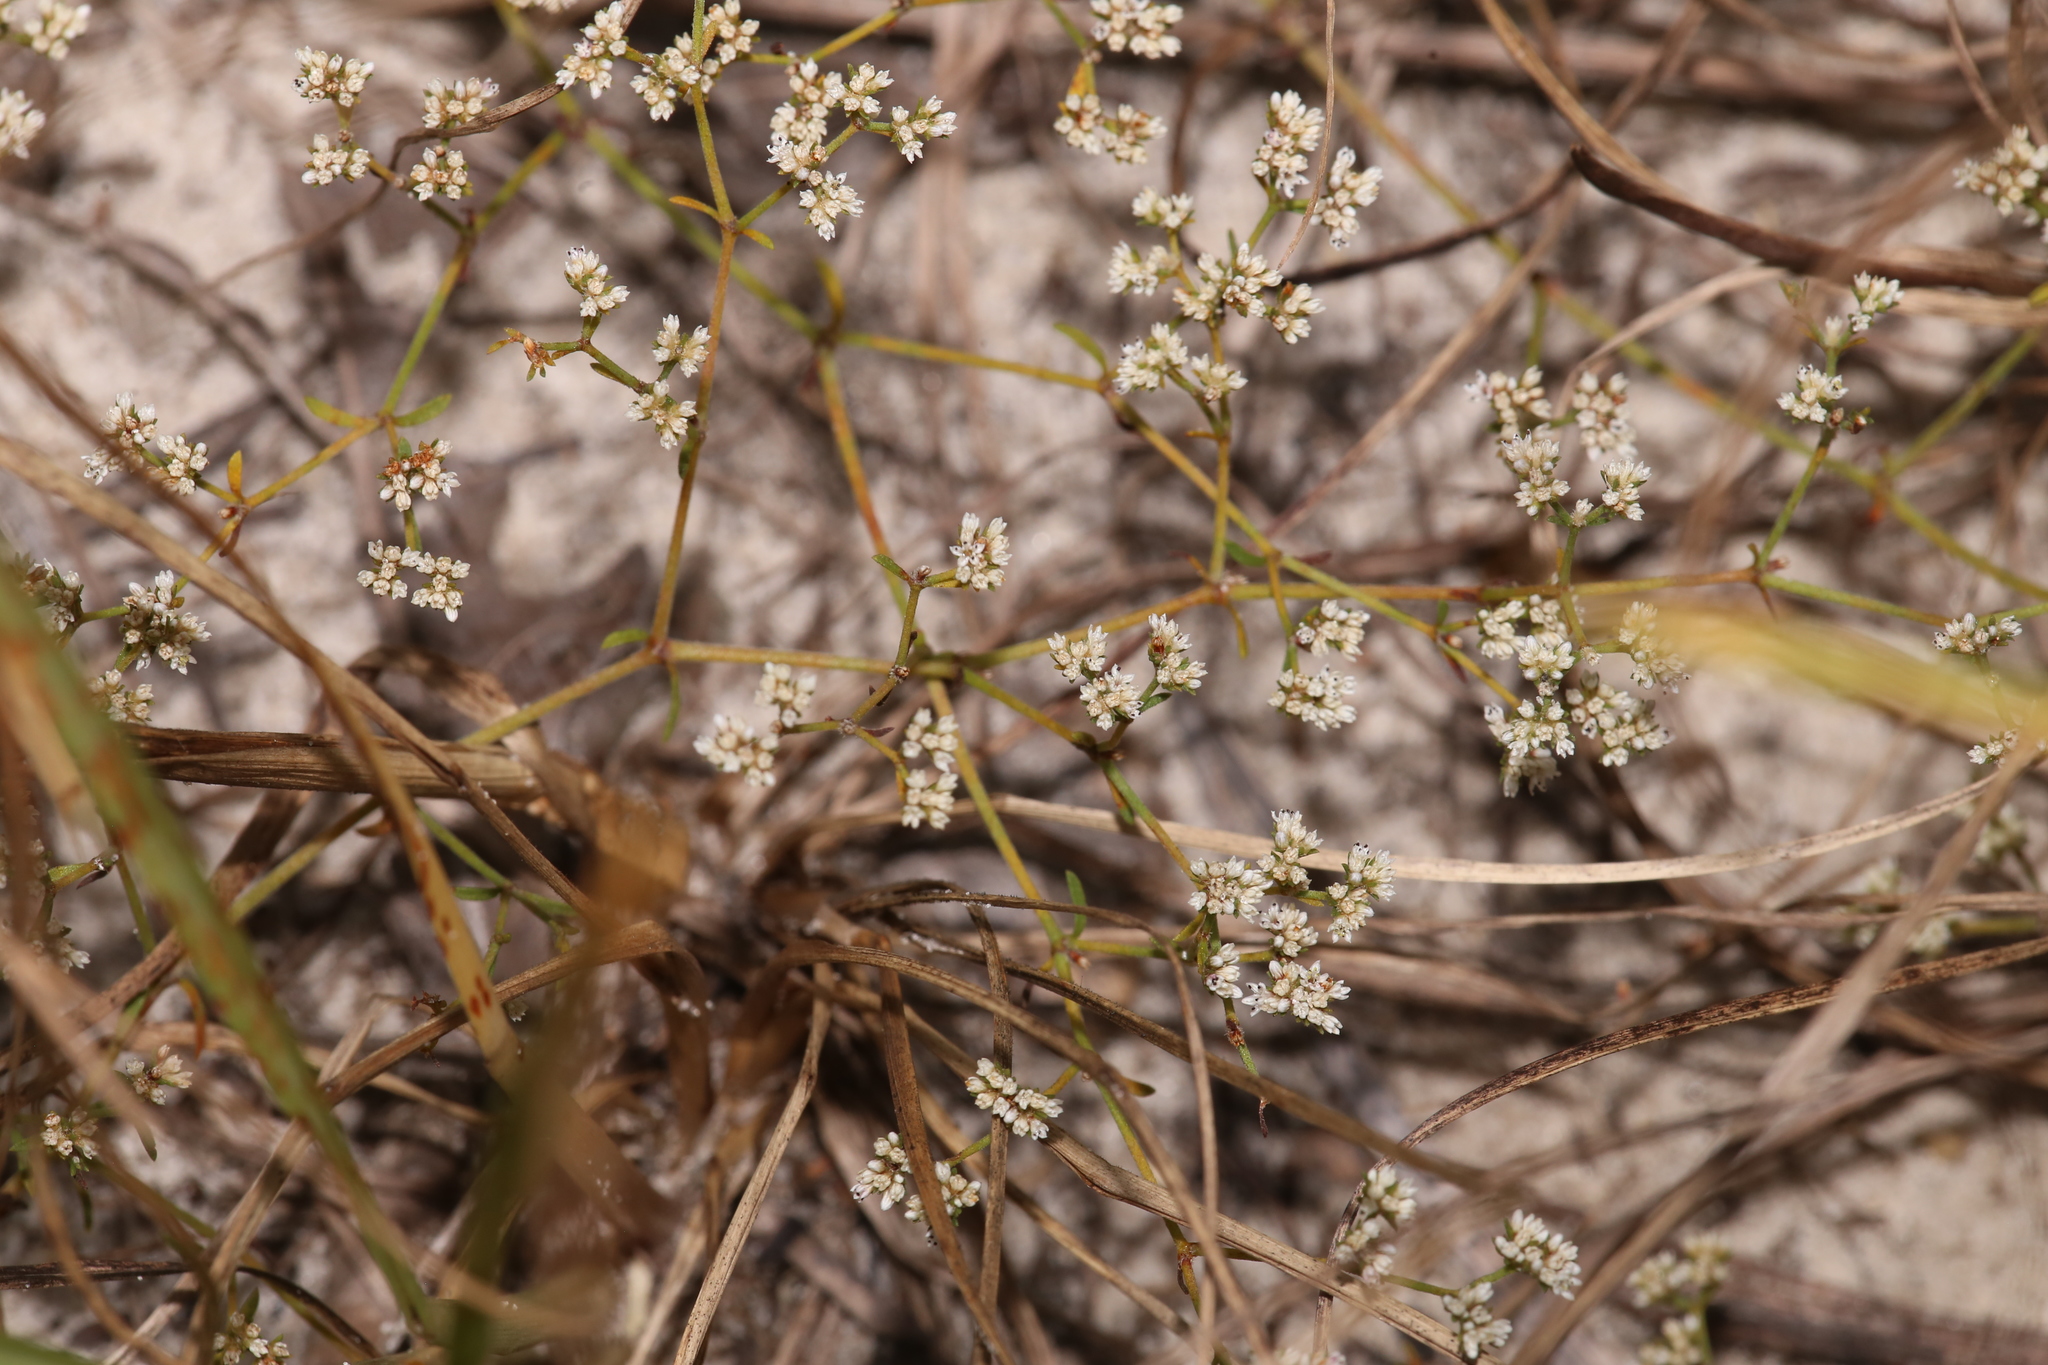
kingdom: Plantae
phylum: Tracheophyta
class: Magnoliopsida
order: Caryophyllales
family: Caryophyllaceae
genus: Paronychia
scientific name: Paronychia patula
